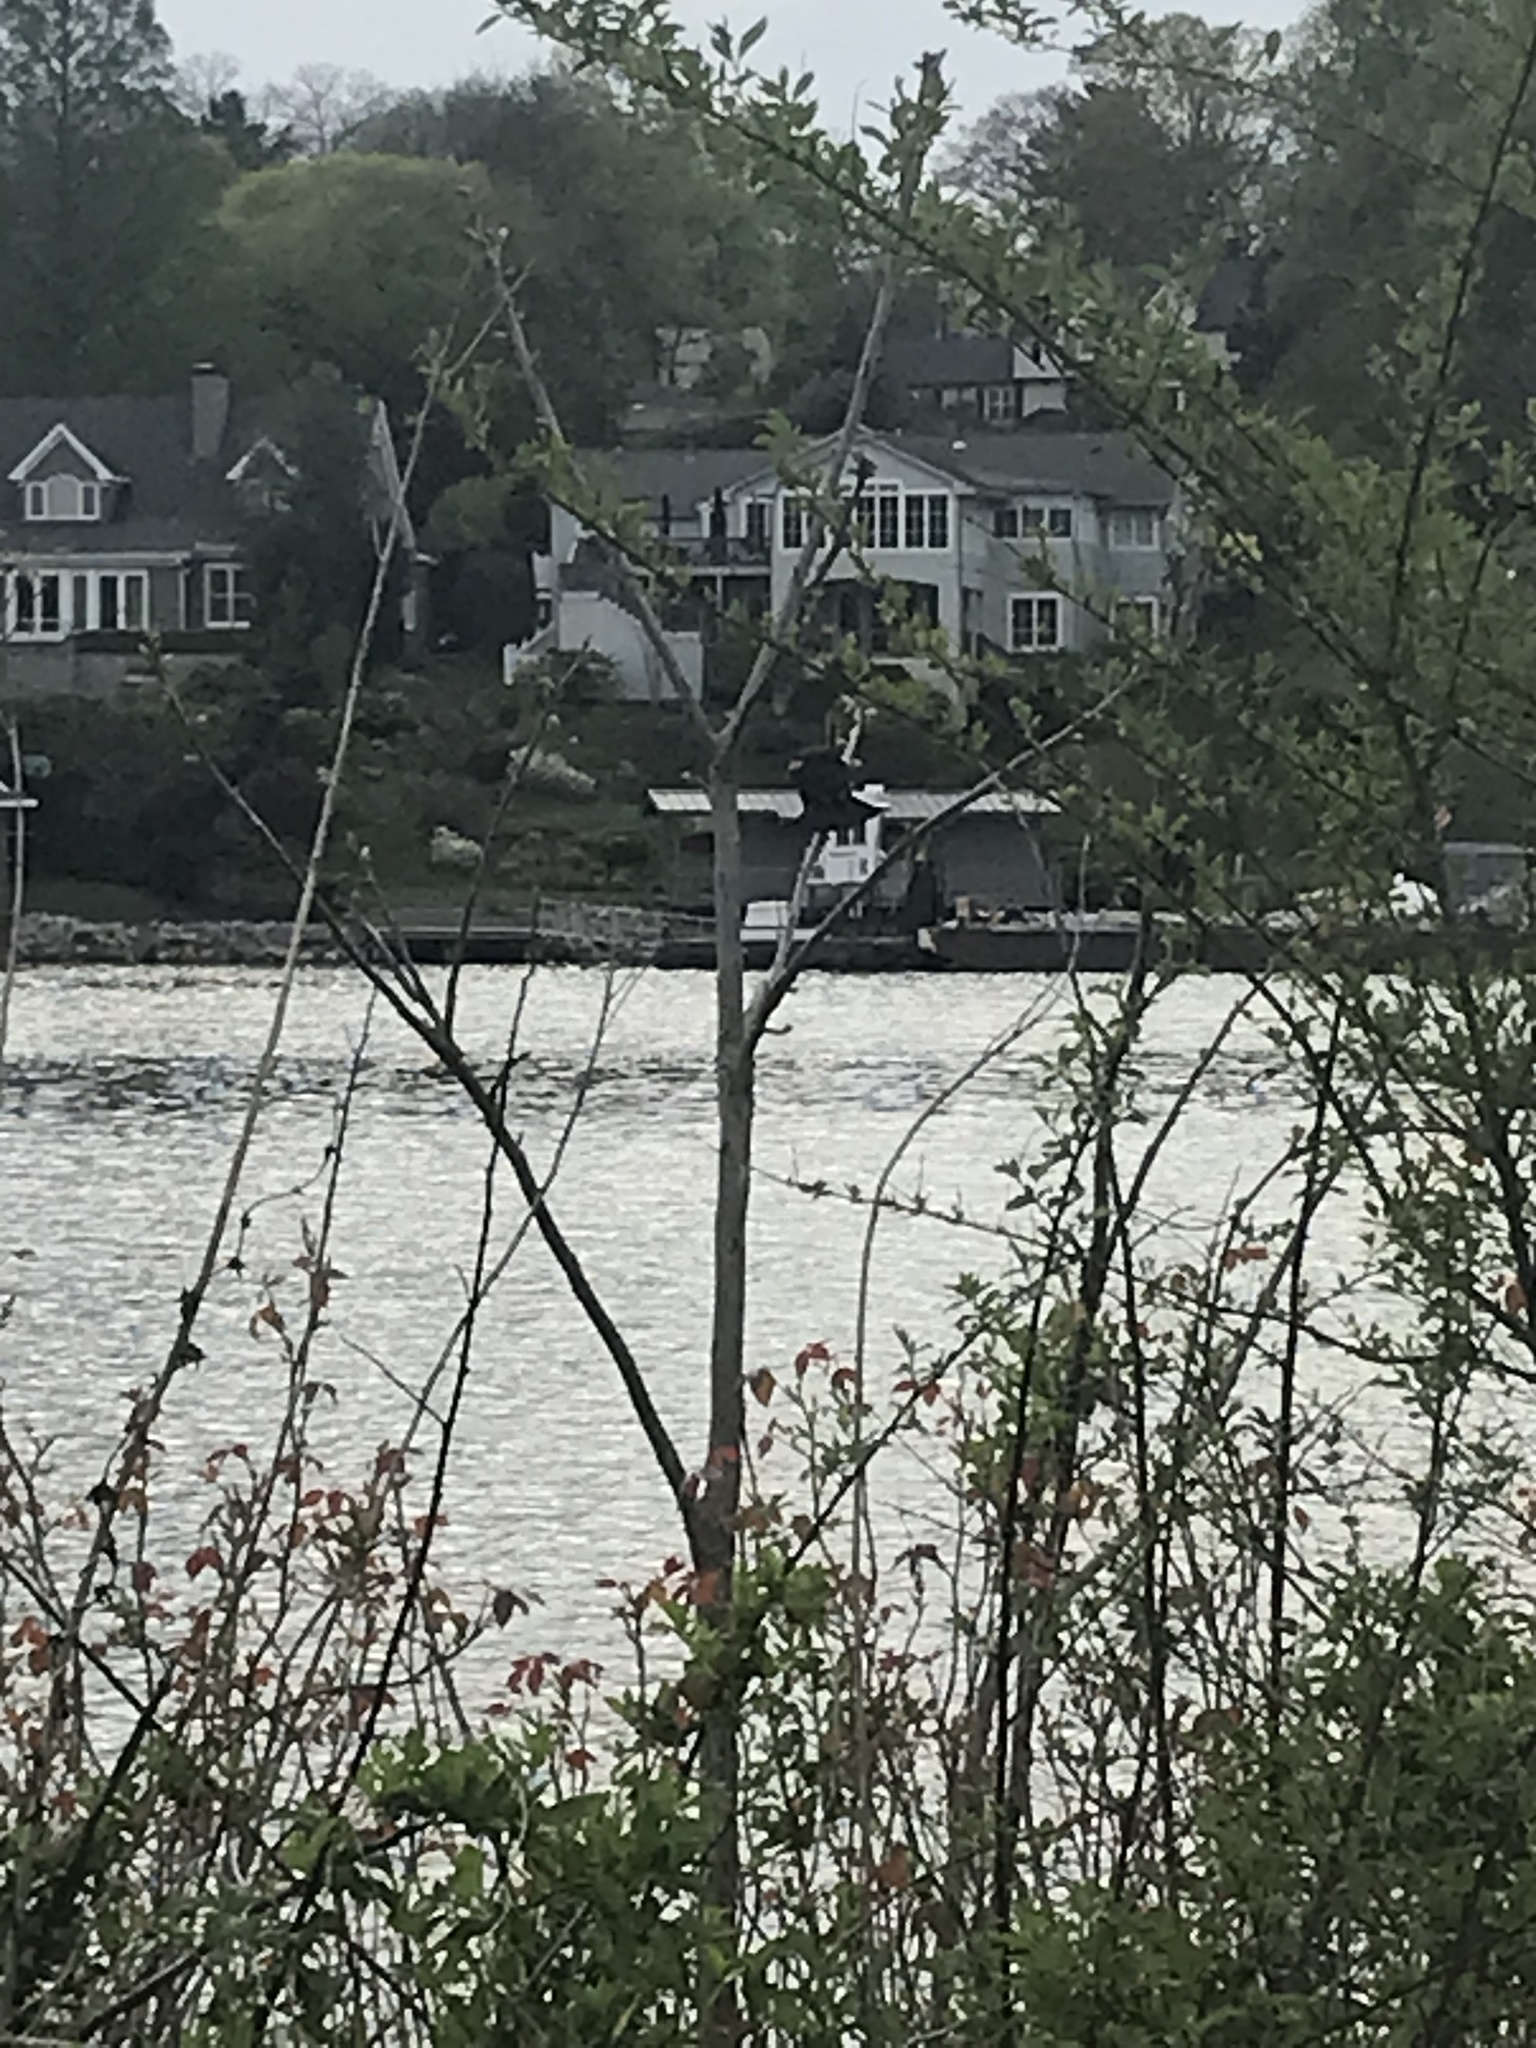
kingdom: Animalia
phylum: Chordata
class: Aves
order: Passeriformes
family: Icteridae
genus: Agelaius
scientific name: Agelaius phoeniceus
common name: Red-winged blackbird
